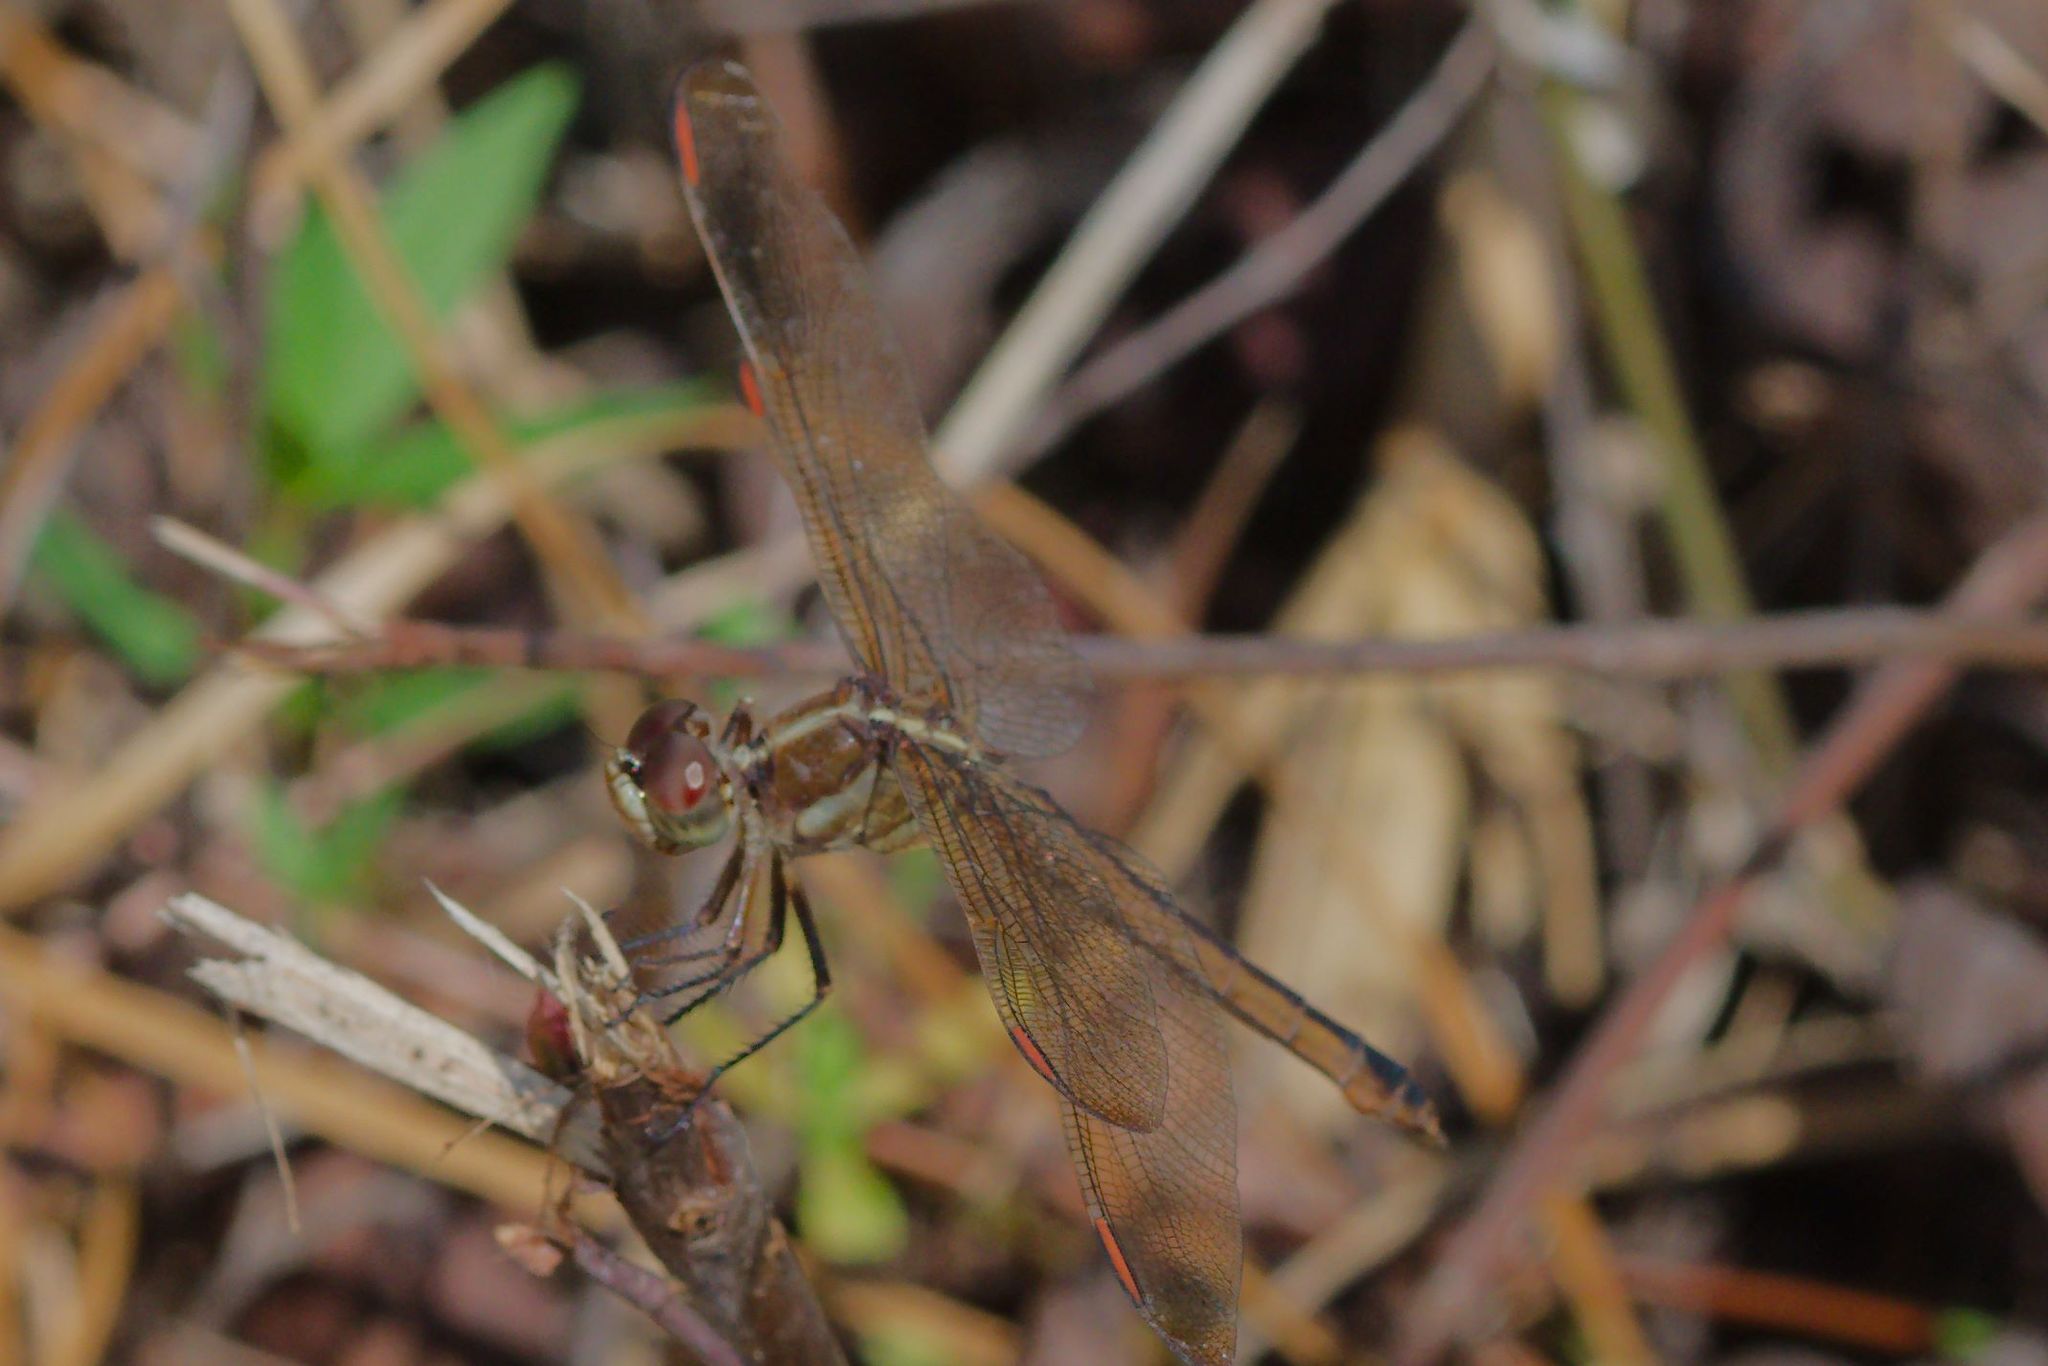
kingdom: Animalia
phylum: Arthropoda
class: Insecta
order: Odonata
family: Libellulidae
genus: Libellula
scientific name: Libellula auripennis
